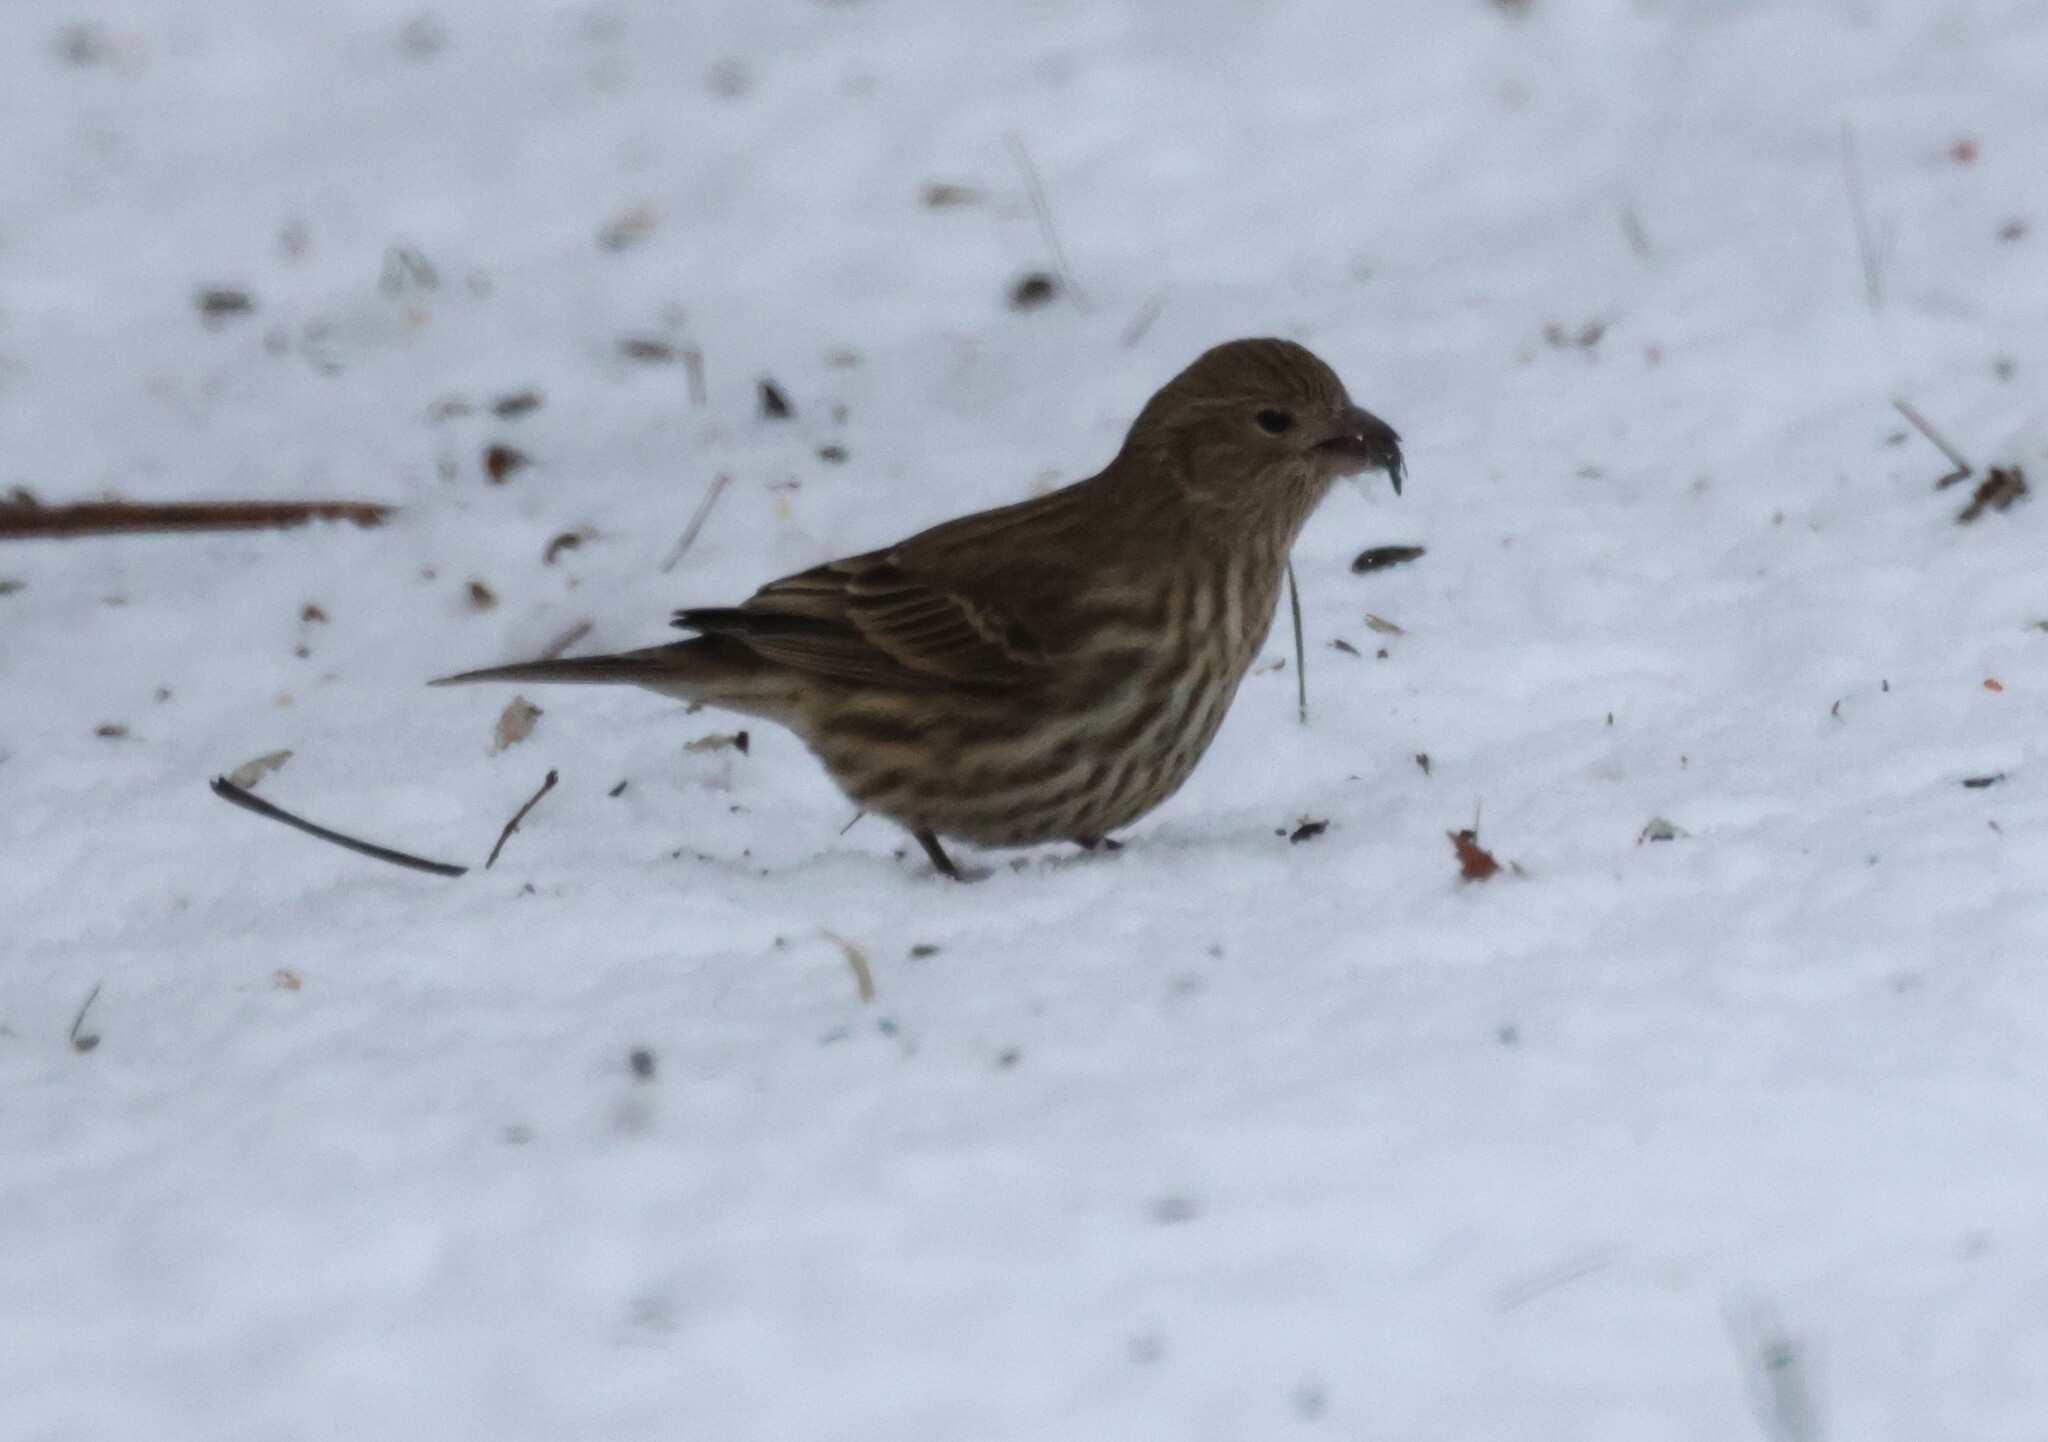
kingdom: Animalia
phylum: Chordata
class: Aves
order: Passeriformes
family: Fringillidae
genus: Haemorhous
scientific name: Haemorhous mexicanus
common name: House finch
